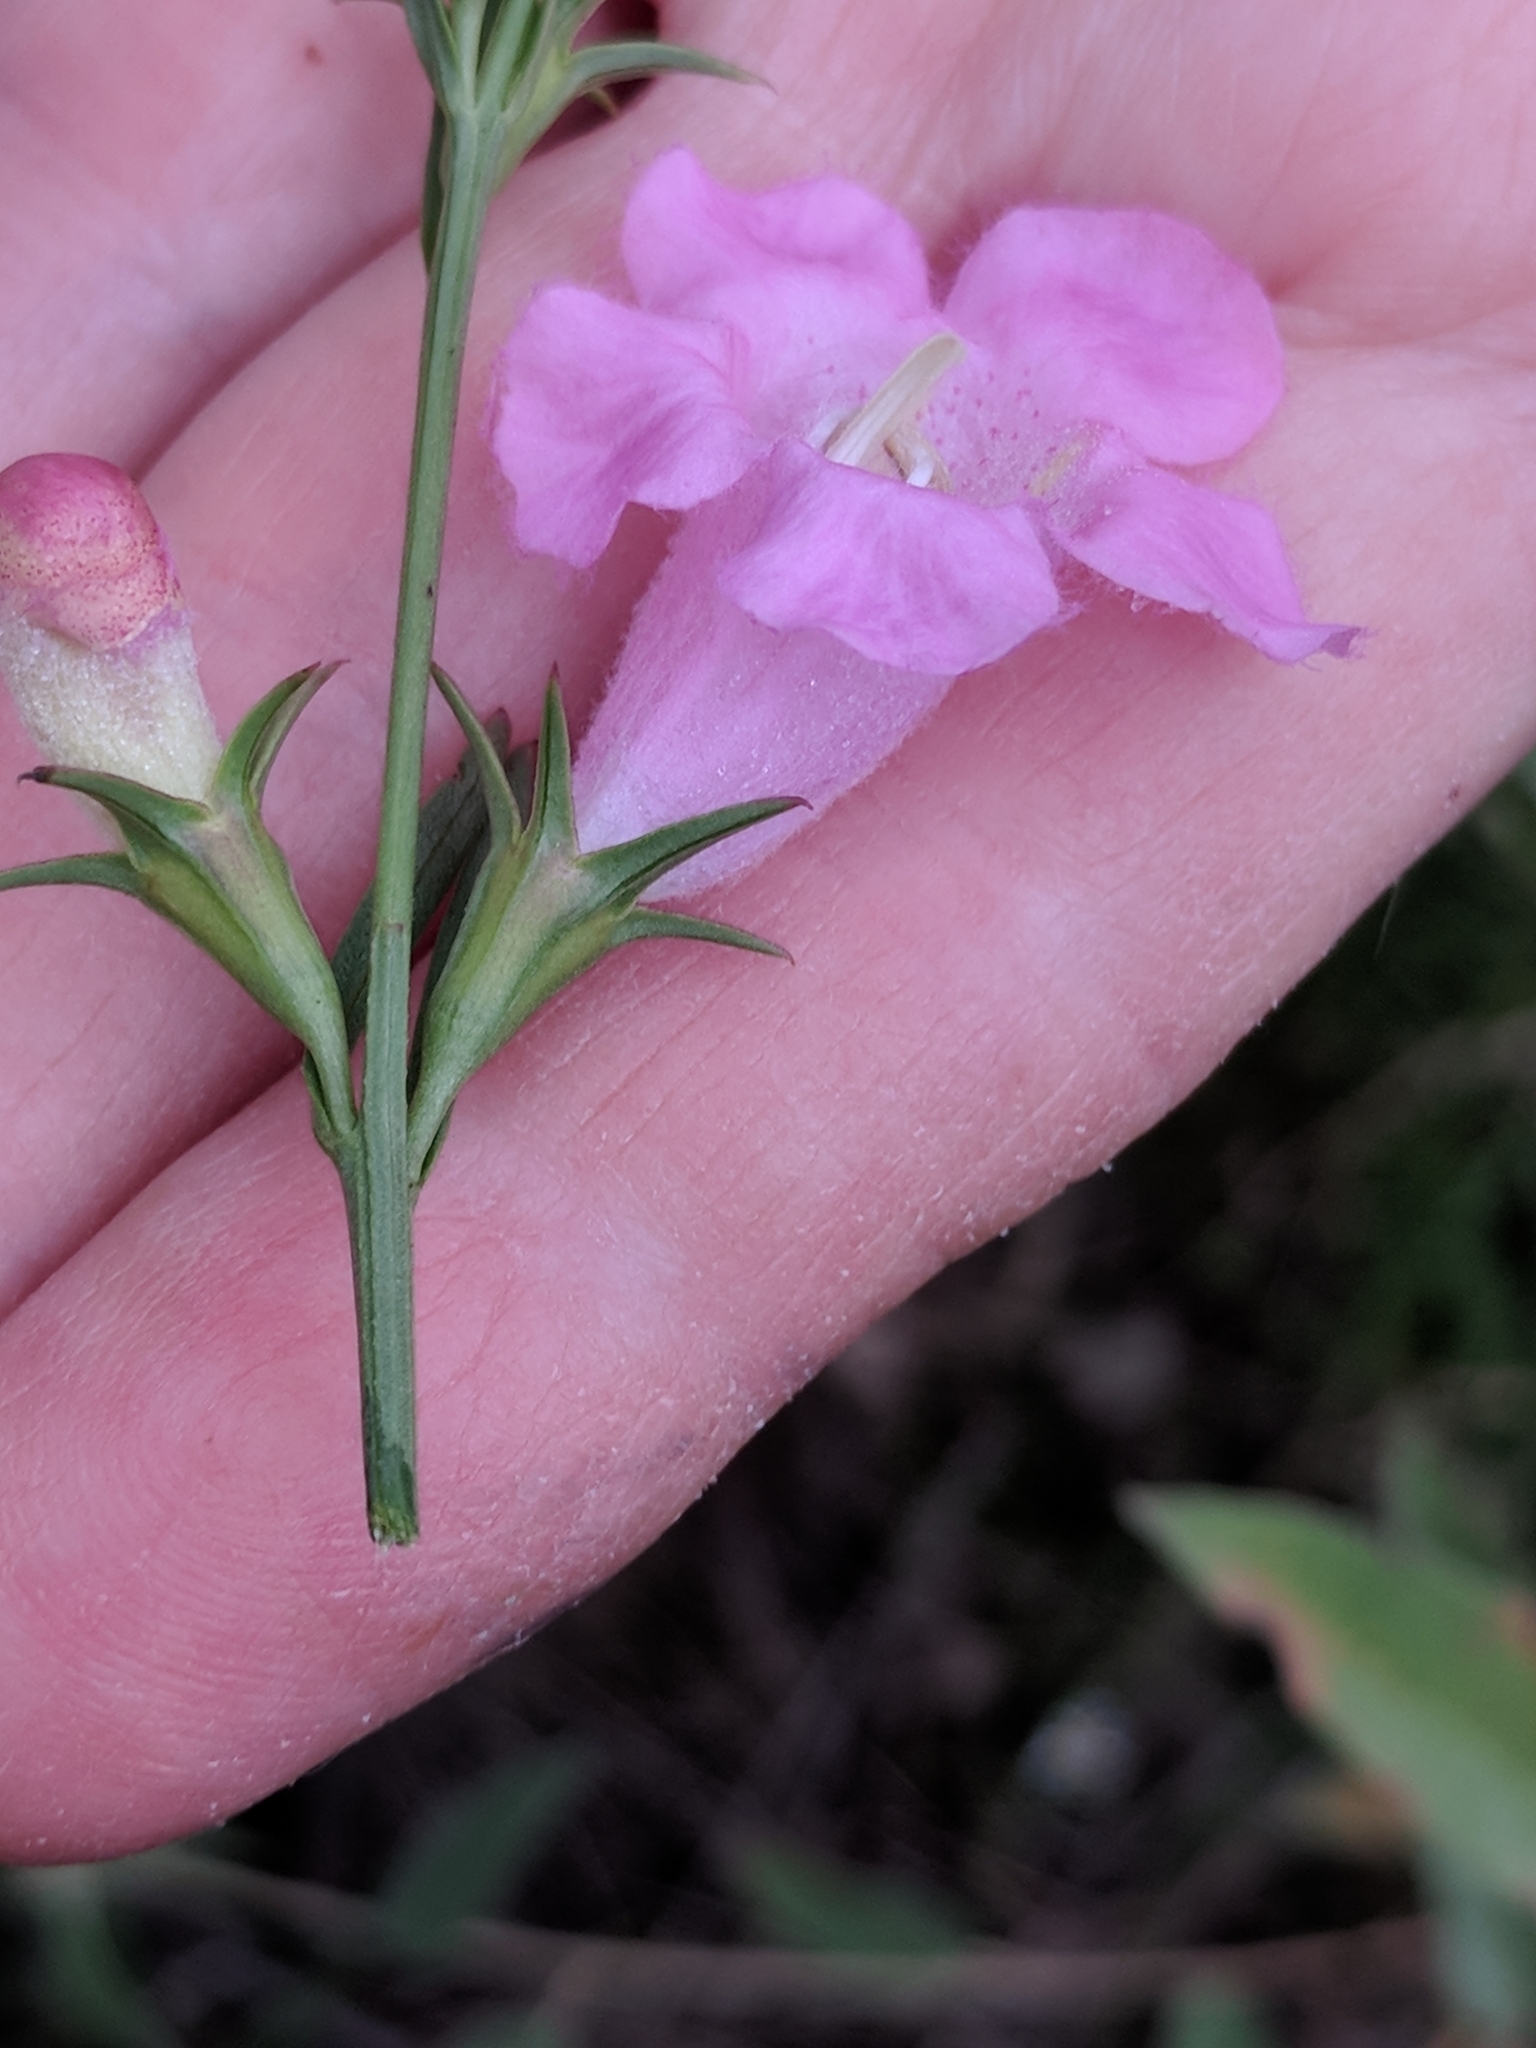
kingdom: Plantae
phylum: Tracheophyta
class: Magnoliopsida
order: Lamiales
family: Orobanchaceae
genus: Agalinis
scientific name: Agalinis heterophylla
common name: Prairie agalinis
